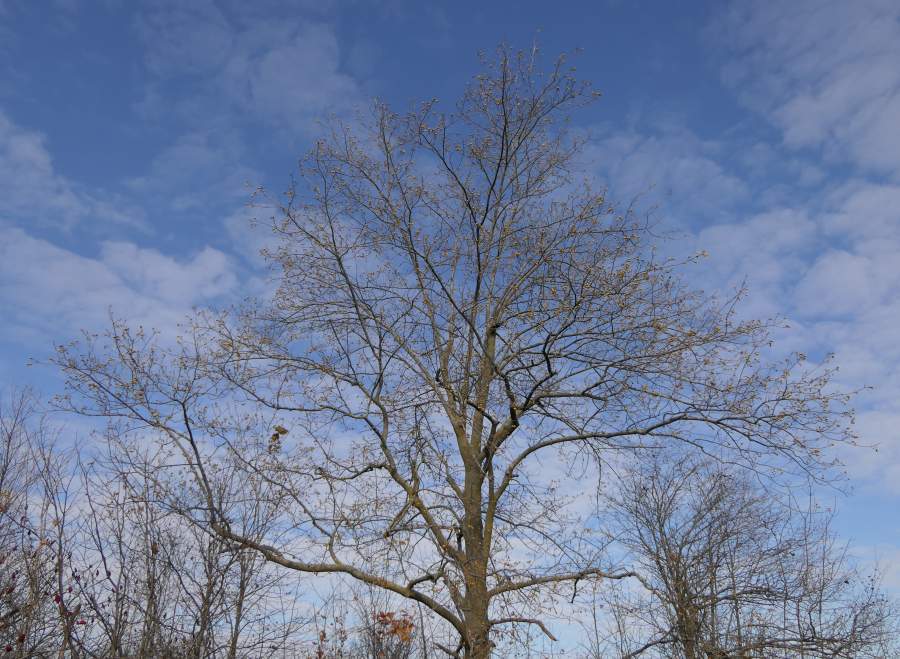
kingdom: Plantae
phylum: Tracheophyta
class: Magnoliopsida
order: Fagales
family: Juglandaceae
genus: Carya
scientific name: Carya cordiformis
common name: Bitternut hickory
